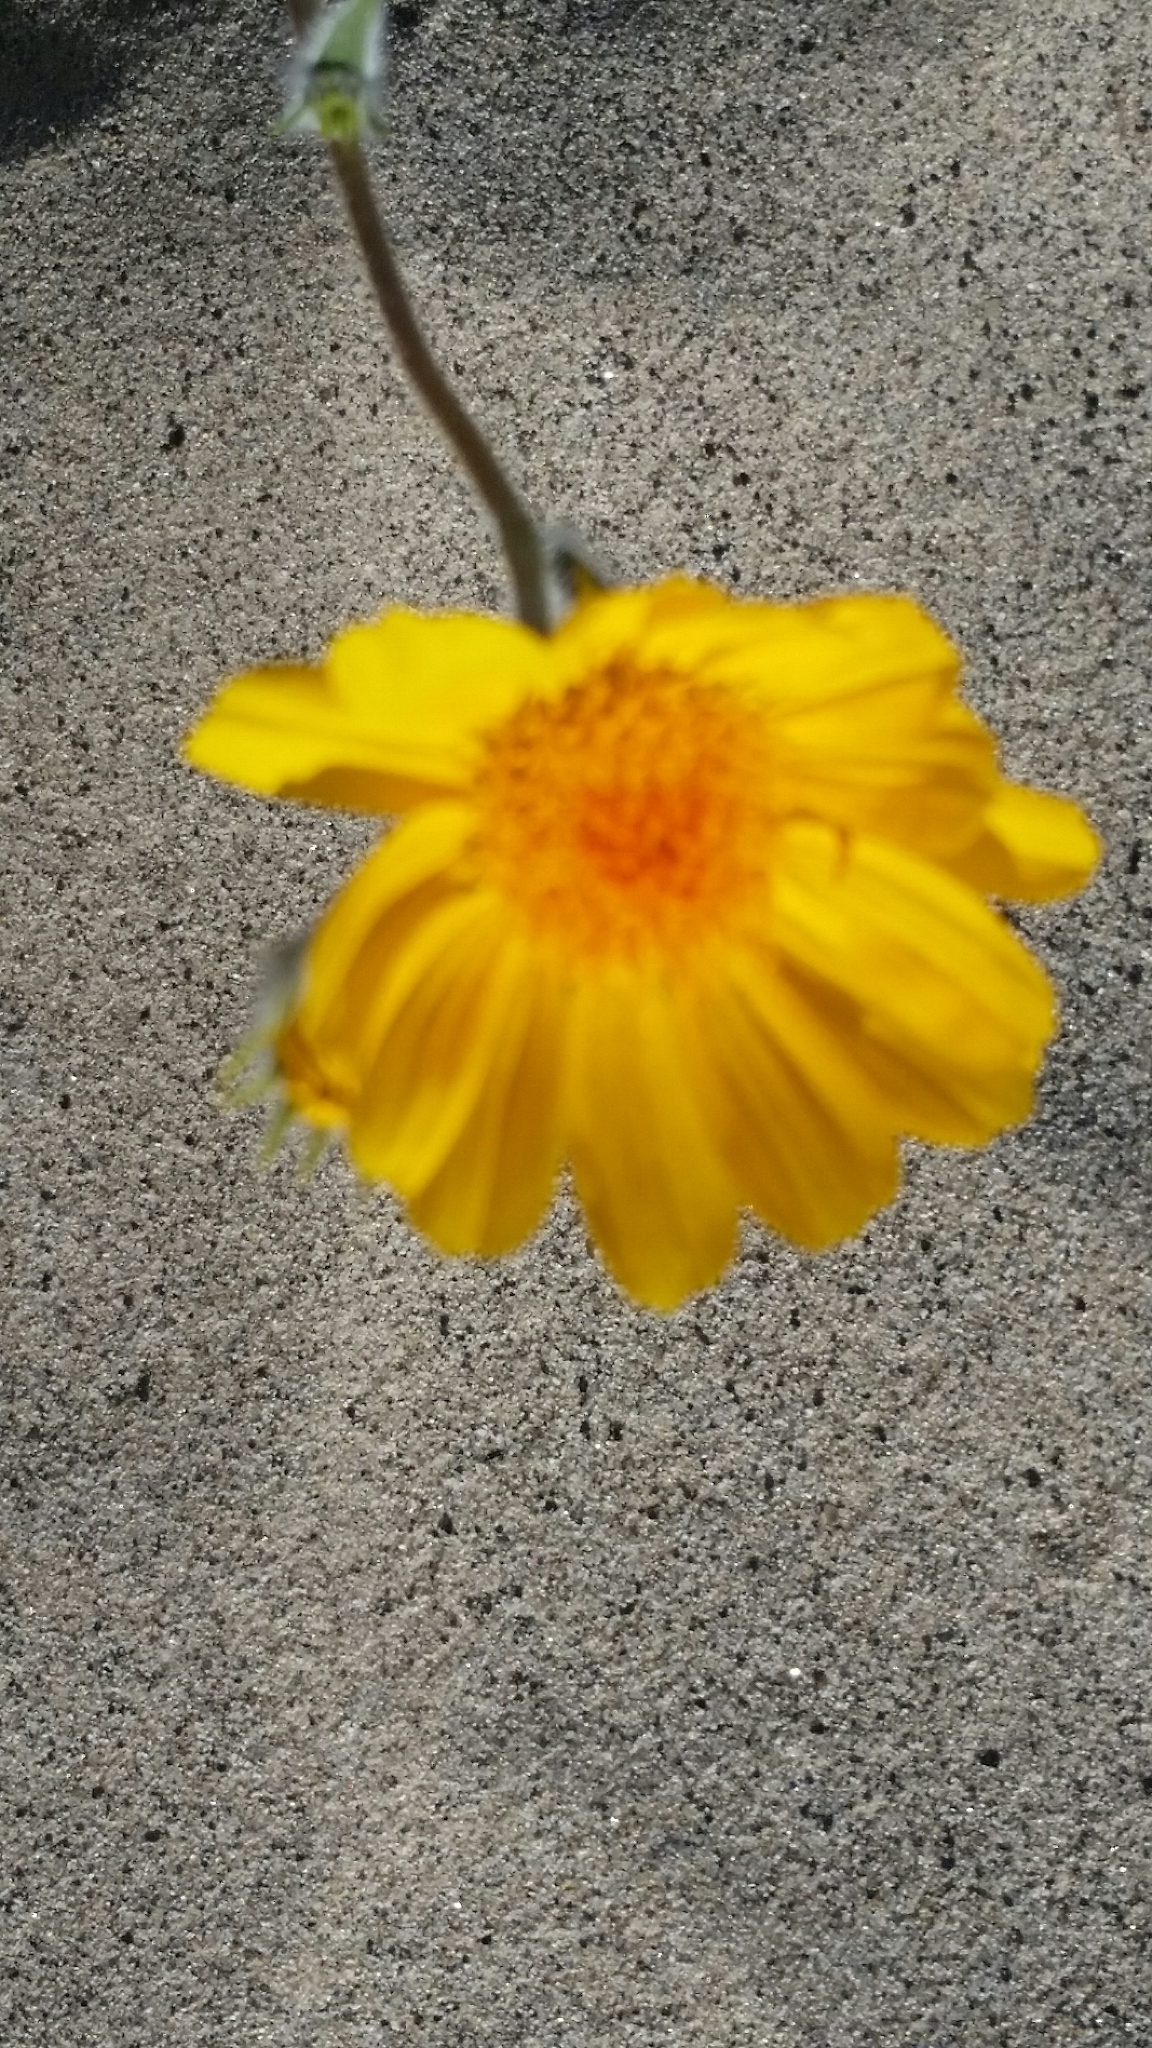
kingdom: Plantae
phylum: Tracheophyta
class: Magnoliopsida
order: Asterales
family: Asteraceae
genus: Geraea
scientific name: Geraea canescens
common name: Desert-gold
